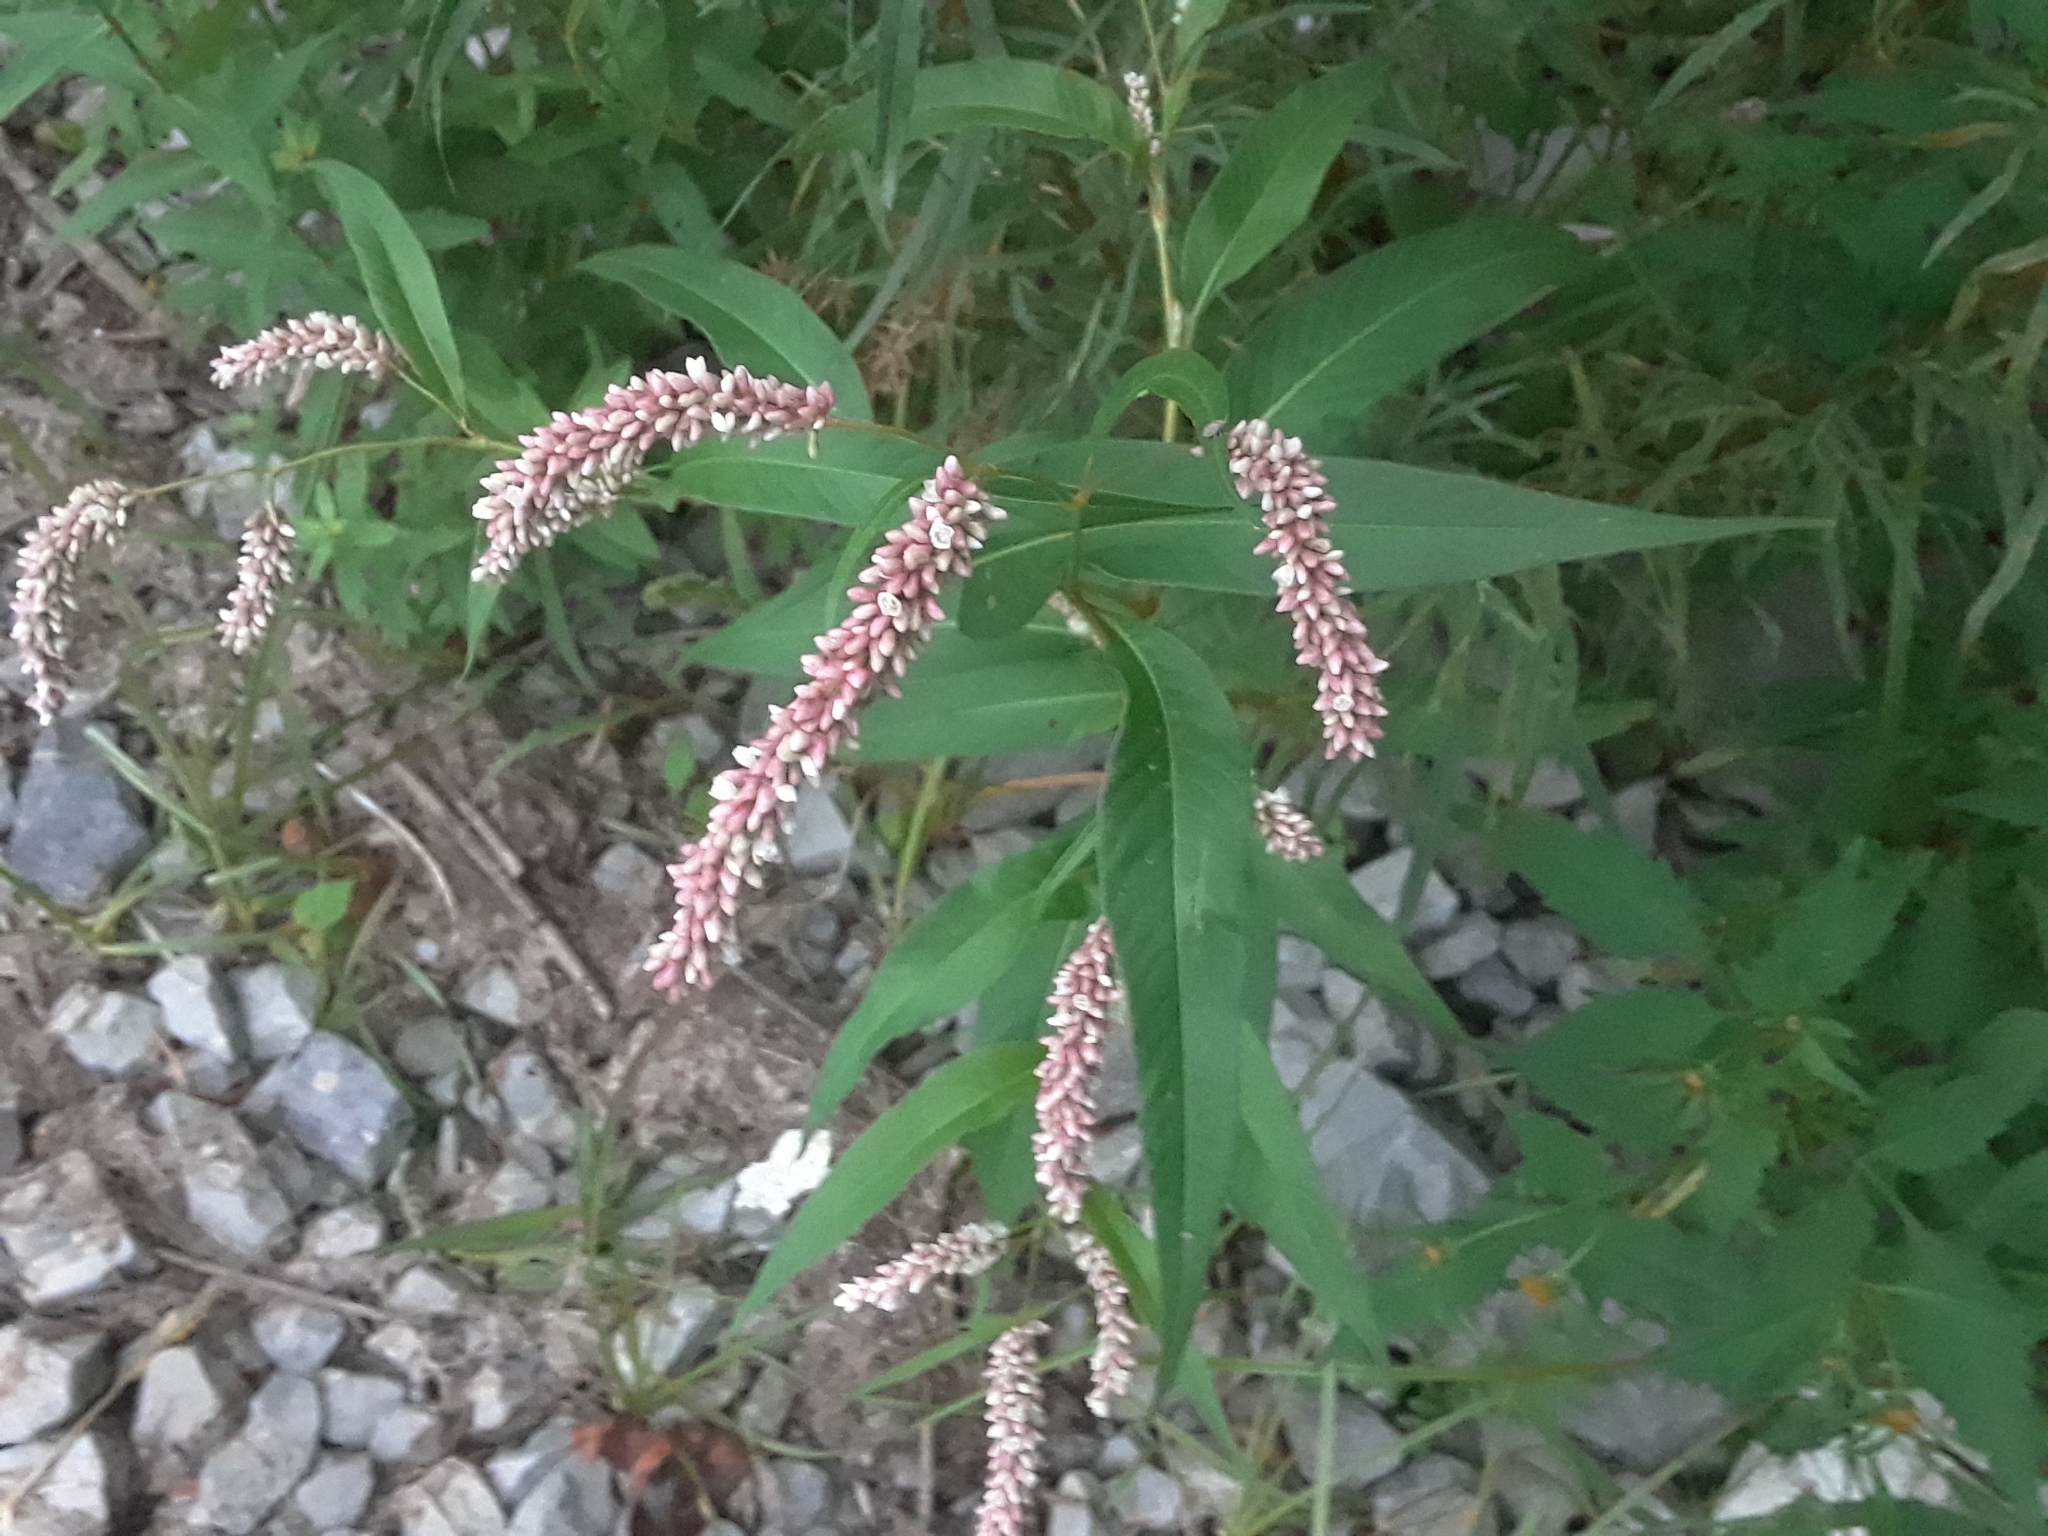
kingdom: Plantae
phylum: Tracheophyta
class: Magnoliopsida
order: Caryophyllales
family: Polygonaceae
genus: Persicaria
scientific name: Persicaria lapathifolia
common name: Curlytop knotweed
